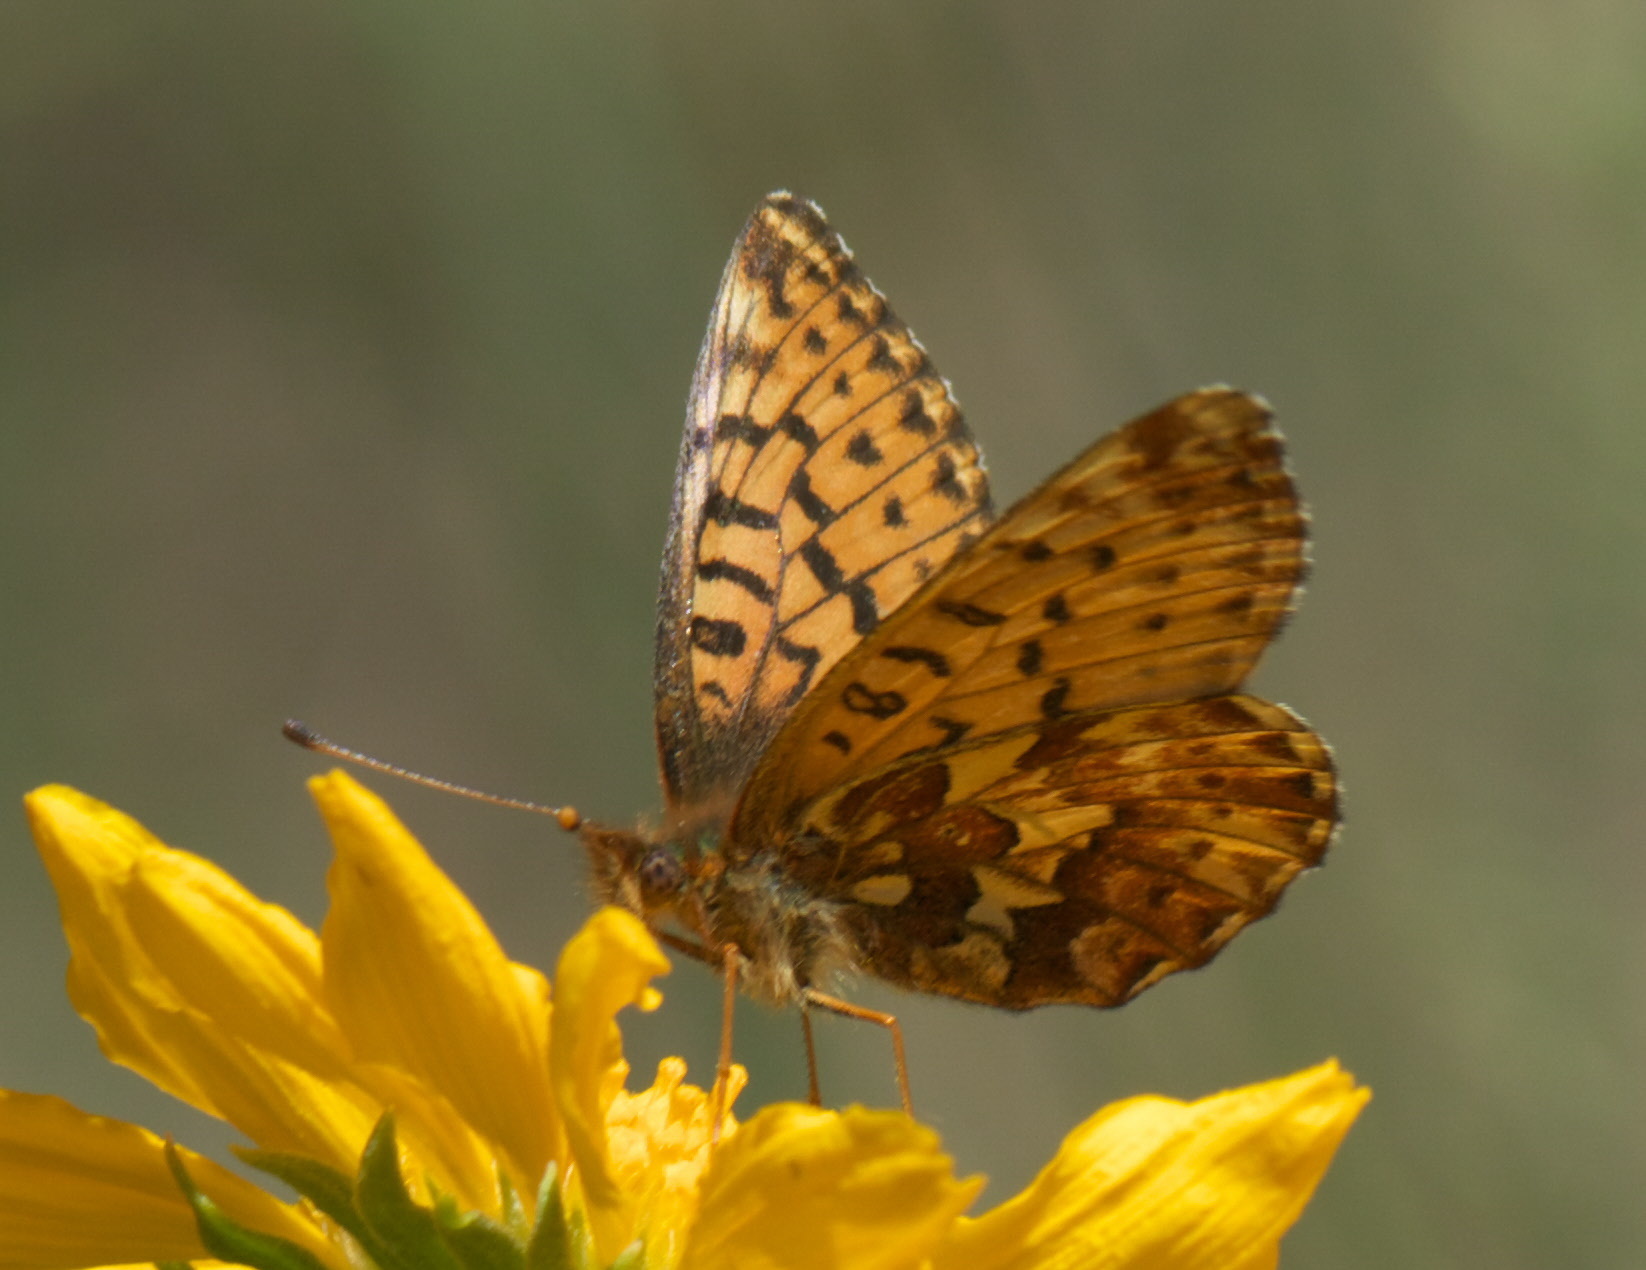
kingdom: Animalia
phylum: Arthropoda
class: Insecta
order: Lepidoptera
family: Nymphalidae
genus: Boloria
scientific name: Boloria chariclea
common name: Arctic fritillary
